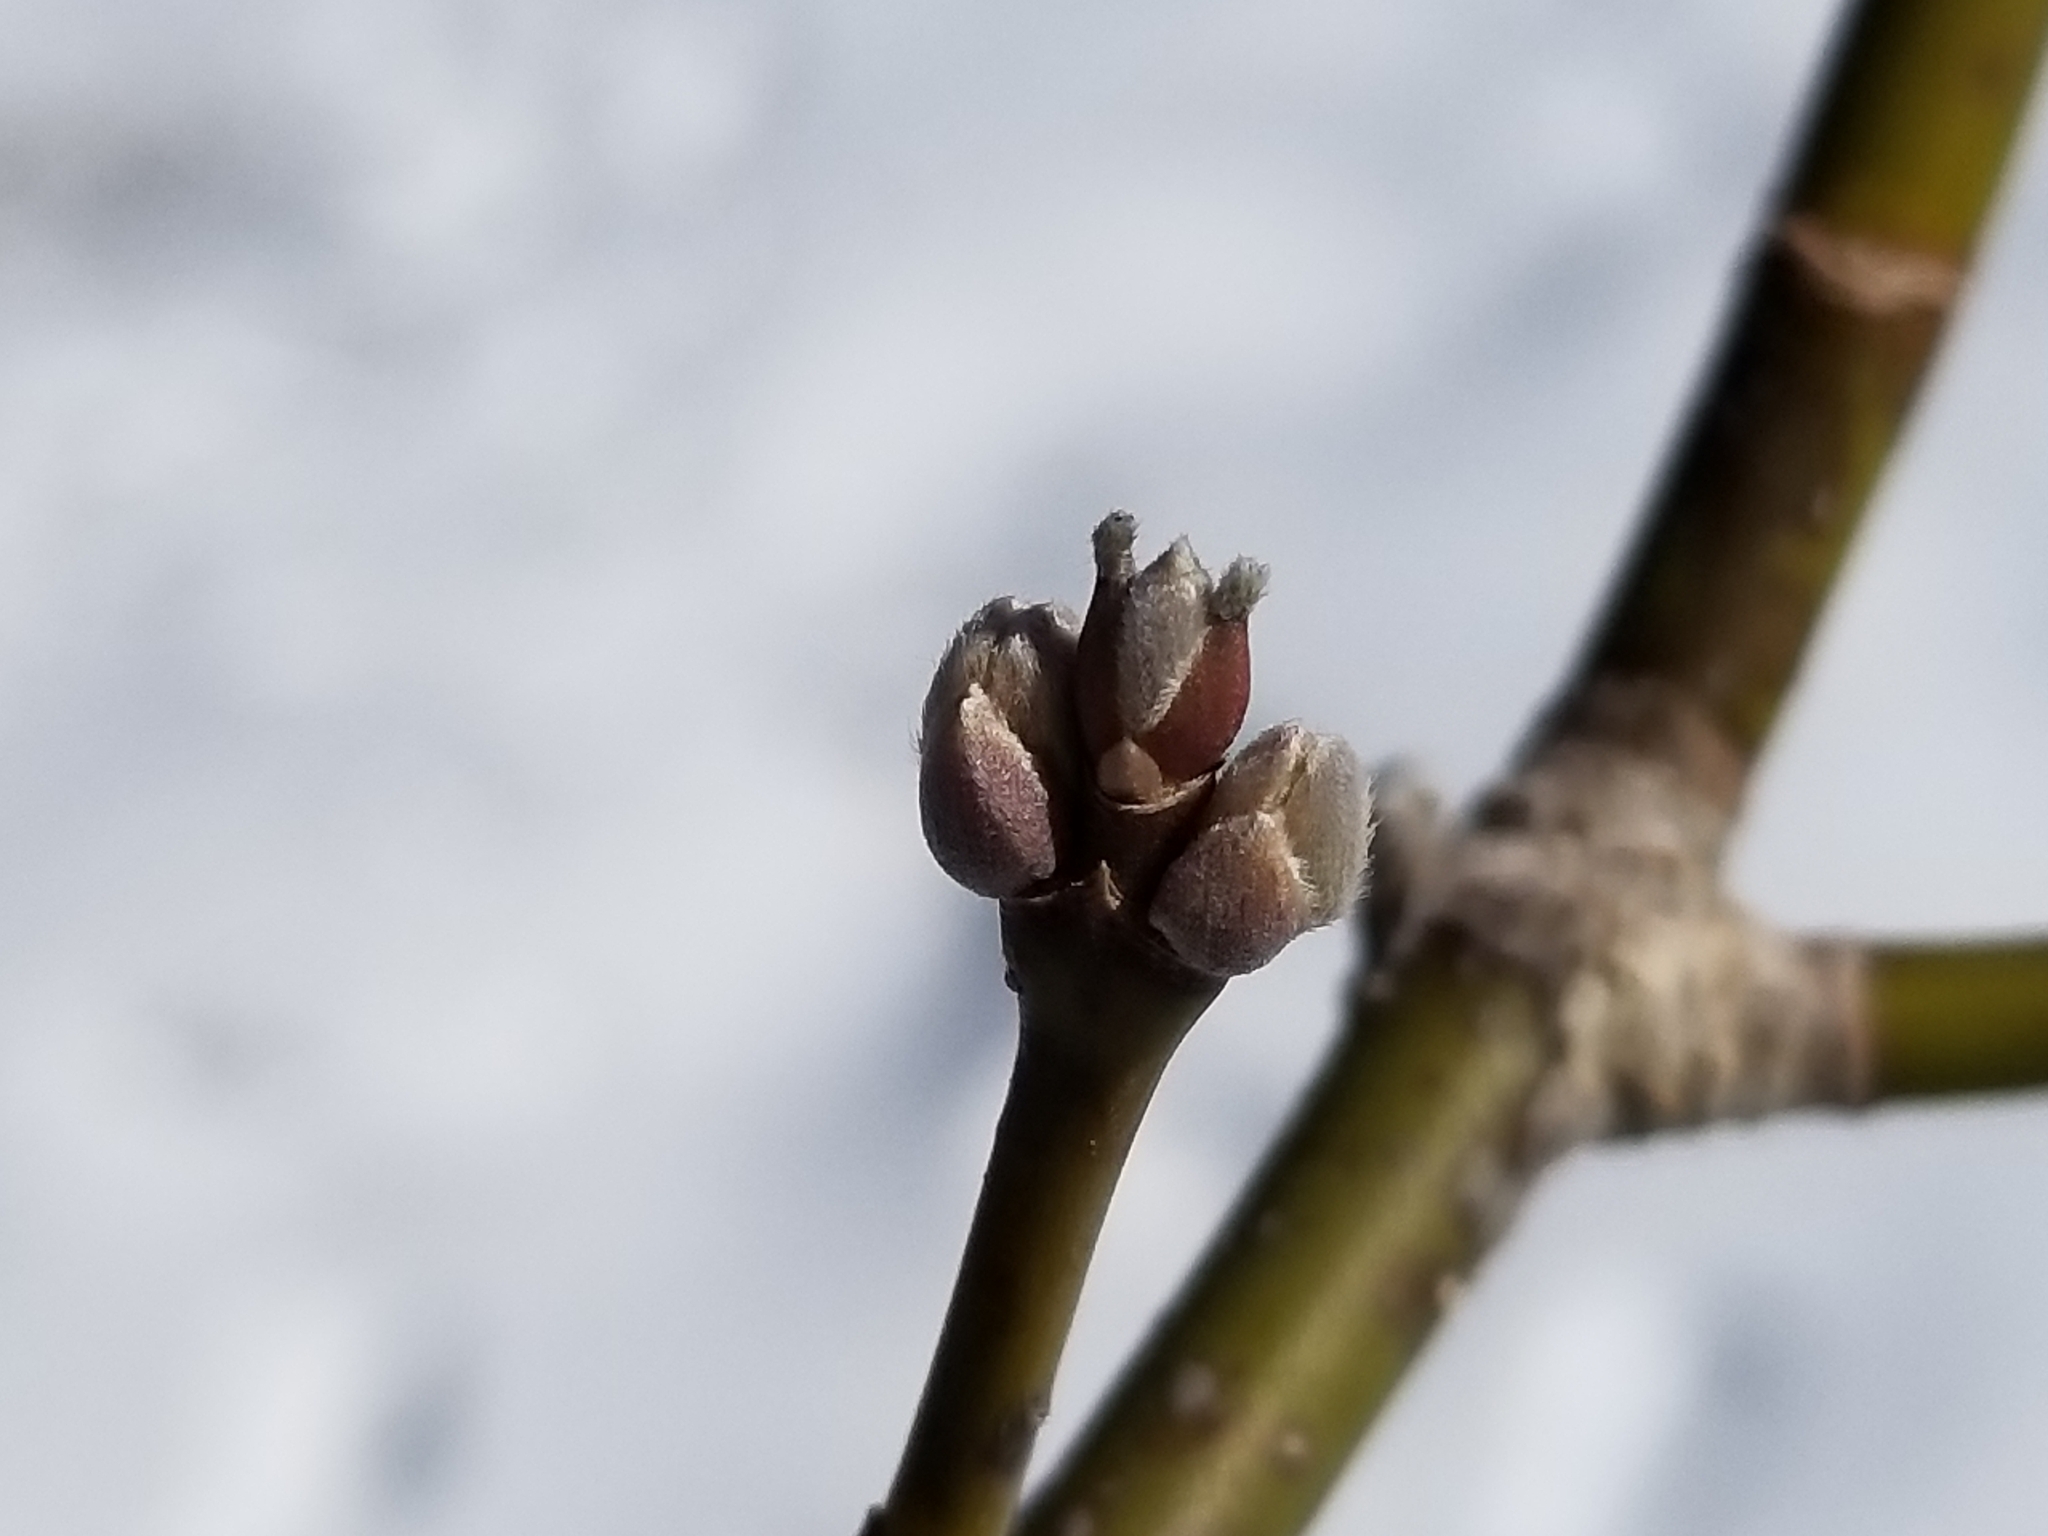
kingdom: Plantae
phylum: Tracheophyta
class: Magnoliopsida
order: Sapindales
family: Sapindaceae
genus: Acer
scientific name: Acer negundo
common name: Ashleaf maple
